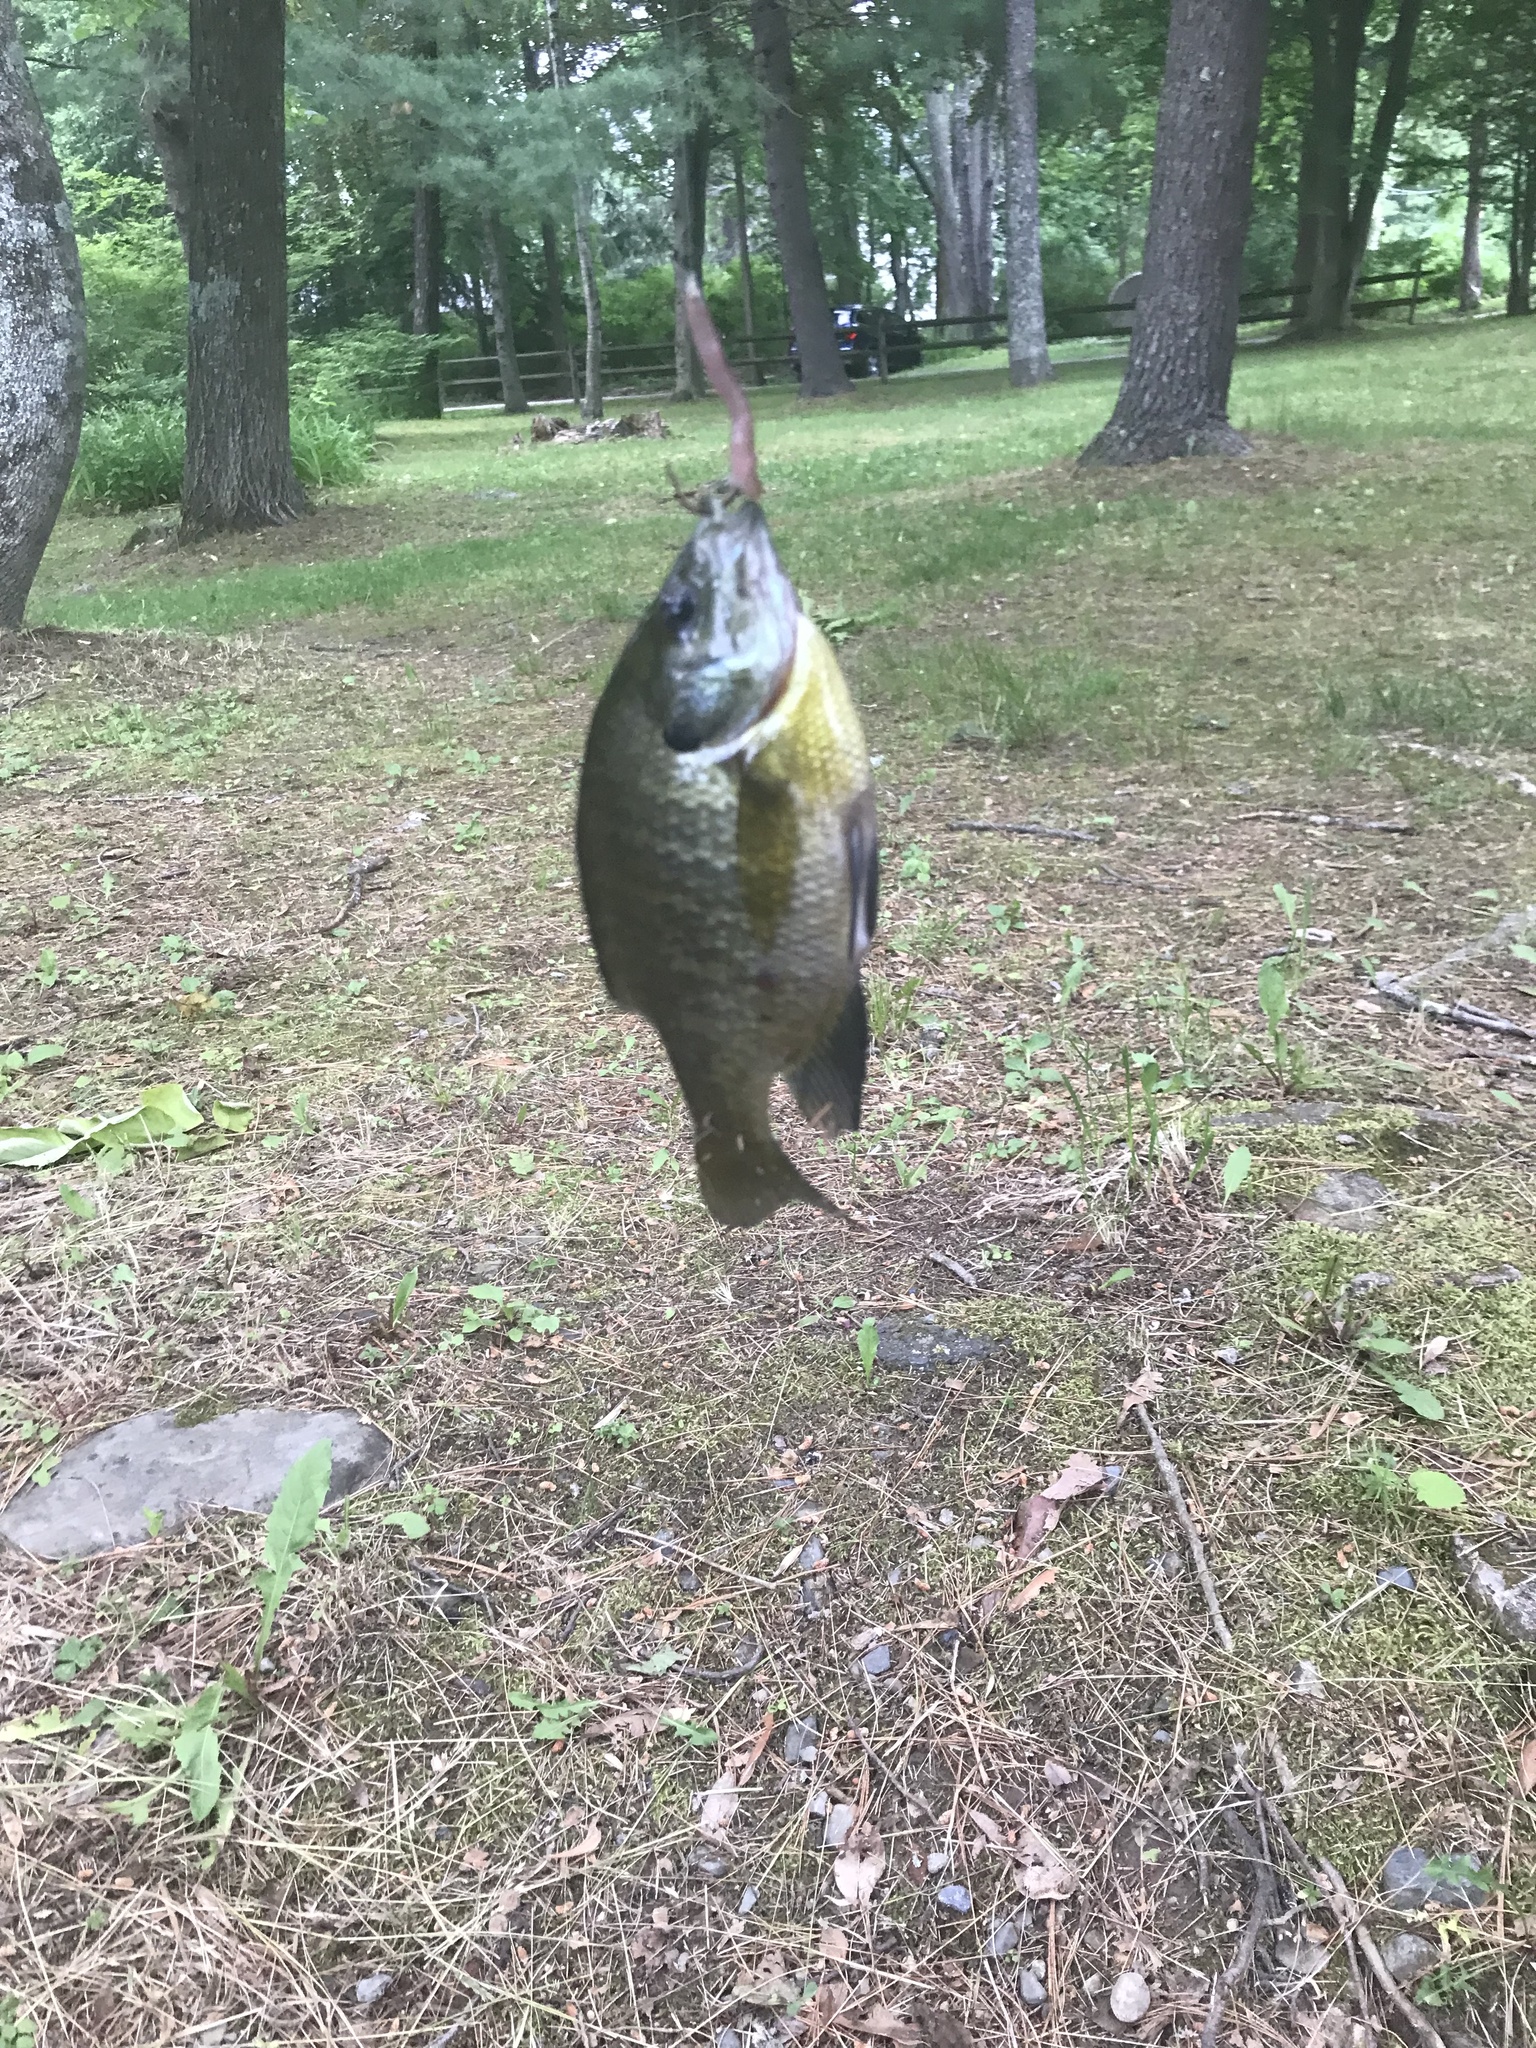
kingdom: Animalia
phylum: Chordata
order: Perciformes
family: Centrarchidae
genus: Lepomis
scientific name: Lepomis macrochirus
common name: Bluegill
